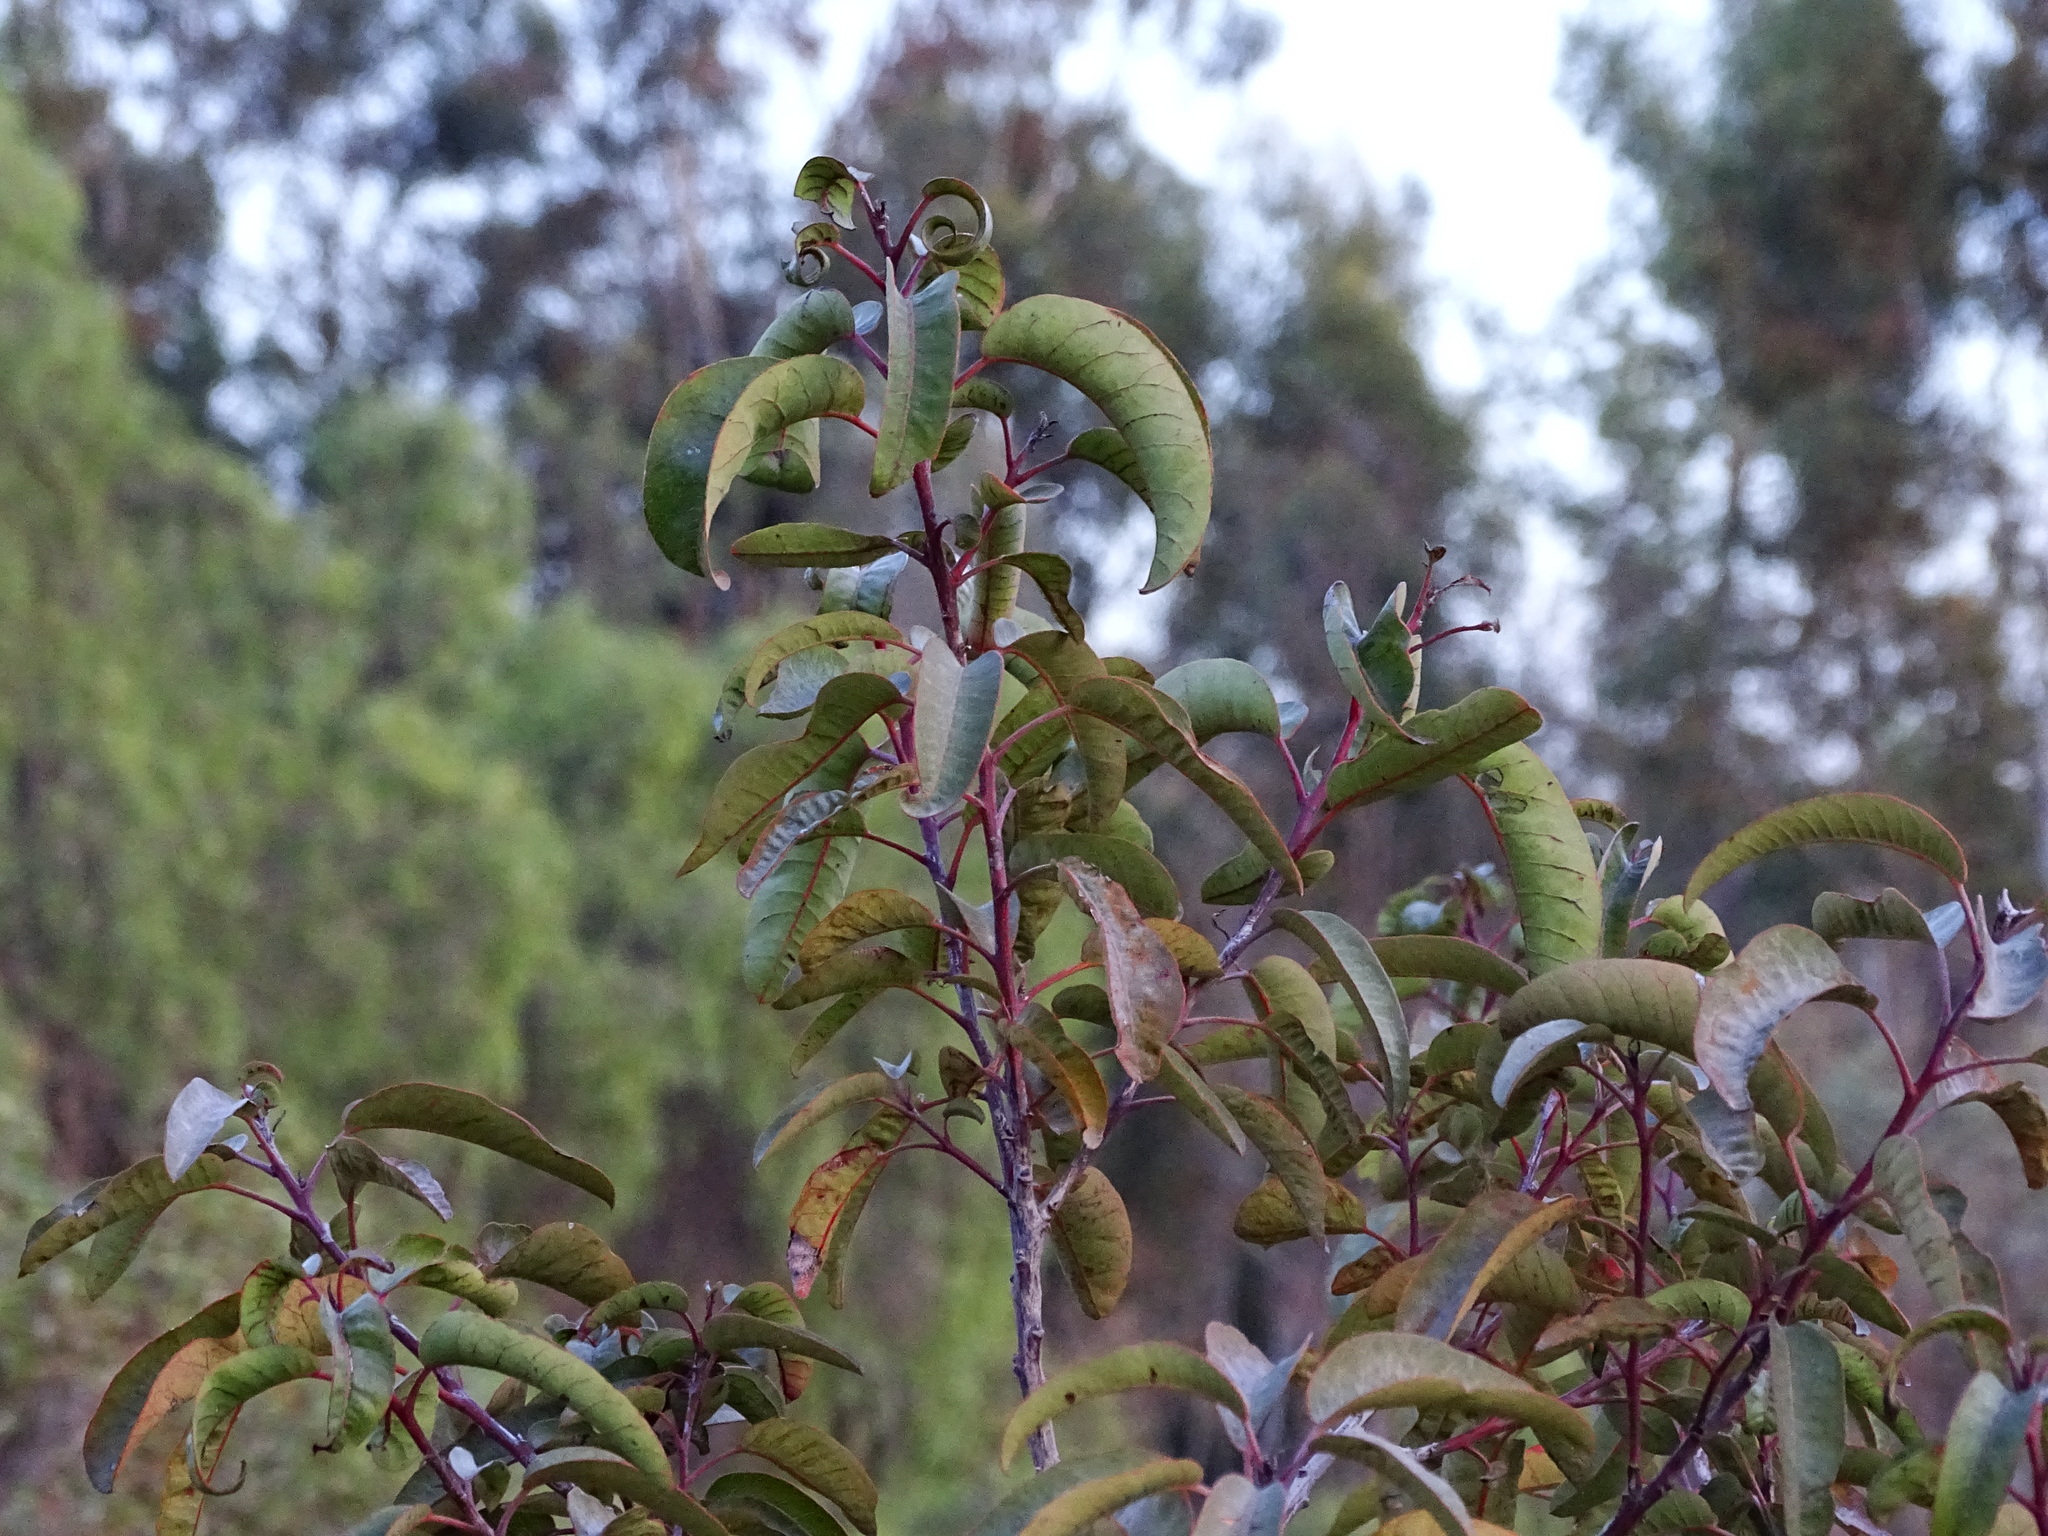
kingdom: Plantae
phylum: Tracheophyta
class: Magnoliopsida
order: Sapindales
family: Anacardiaceae
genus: Malosma
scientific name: Malosma laurina
